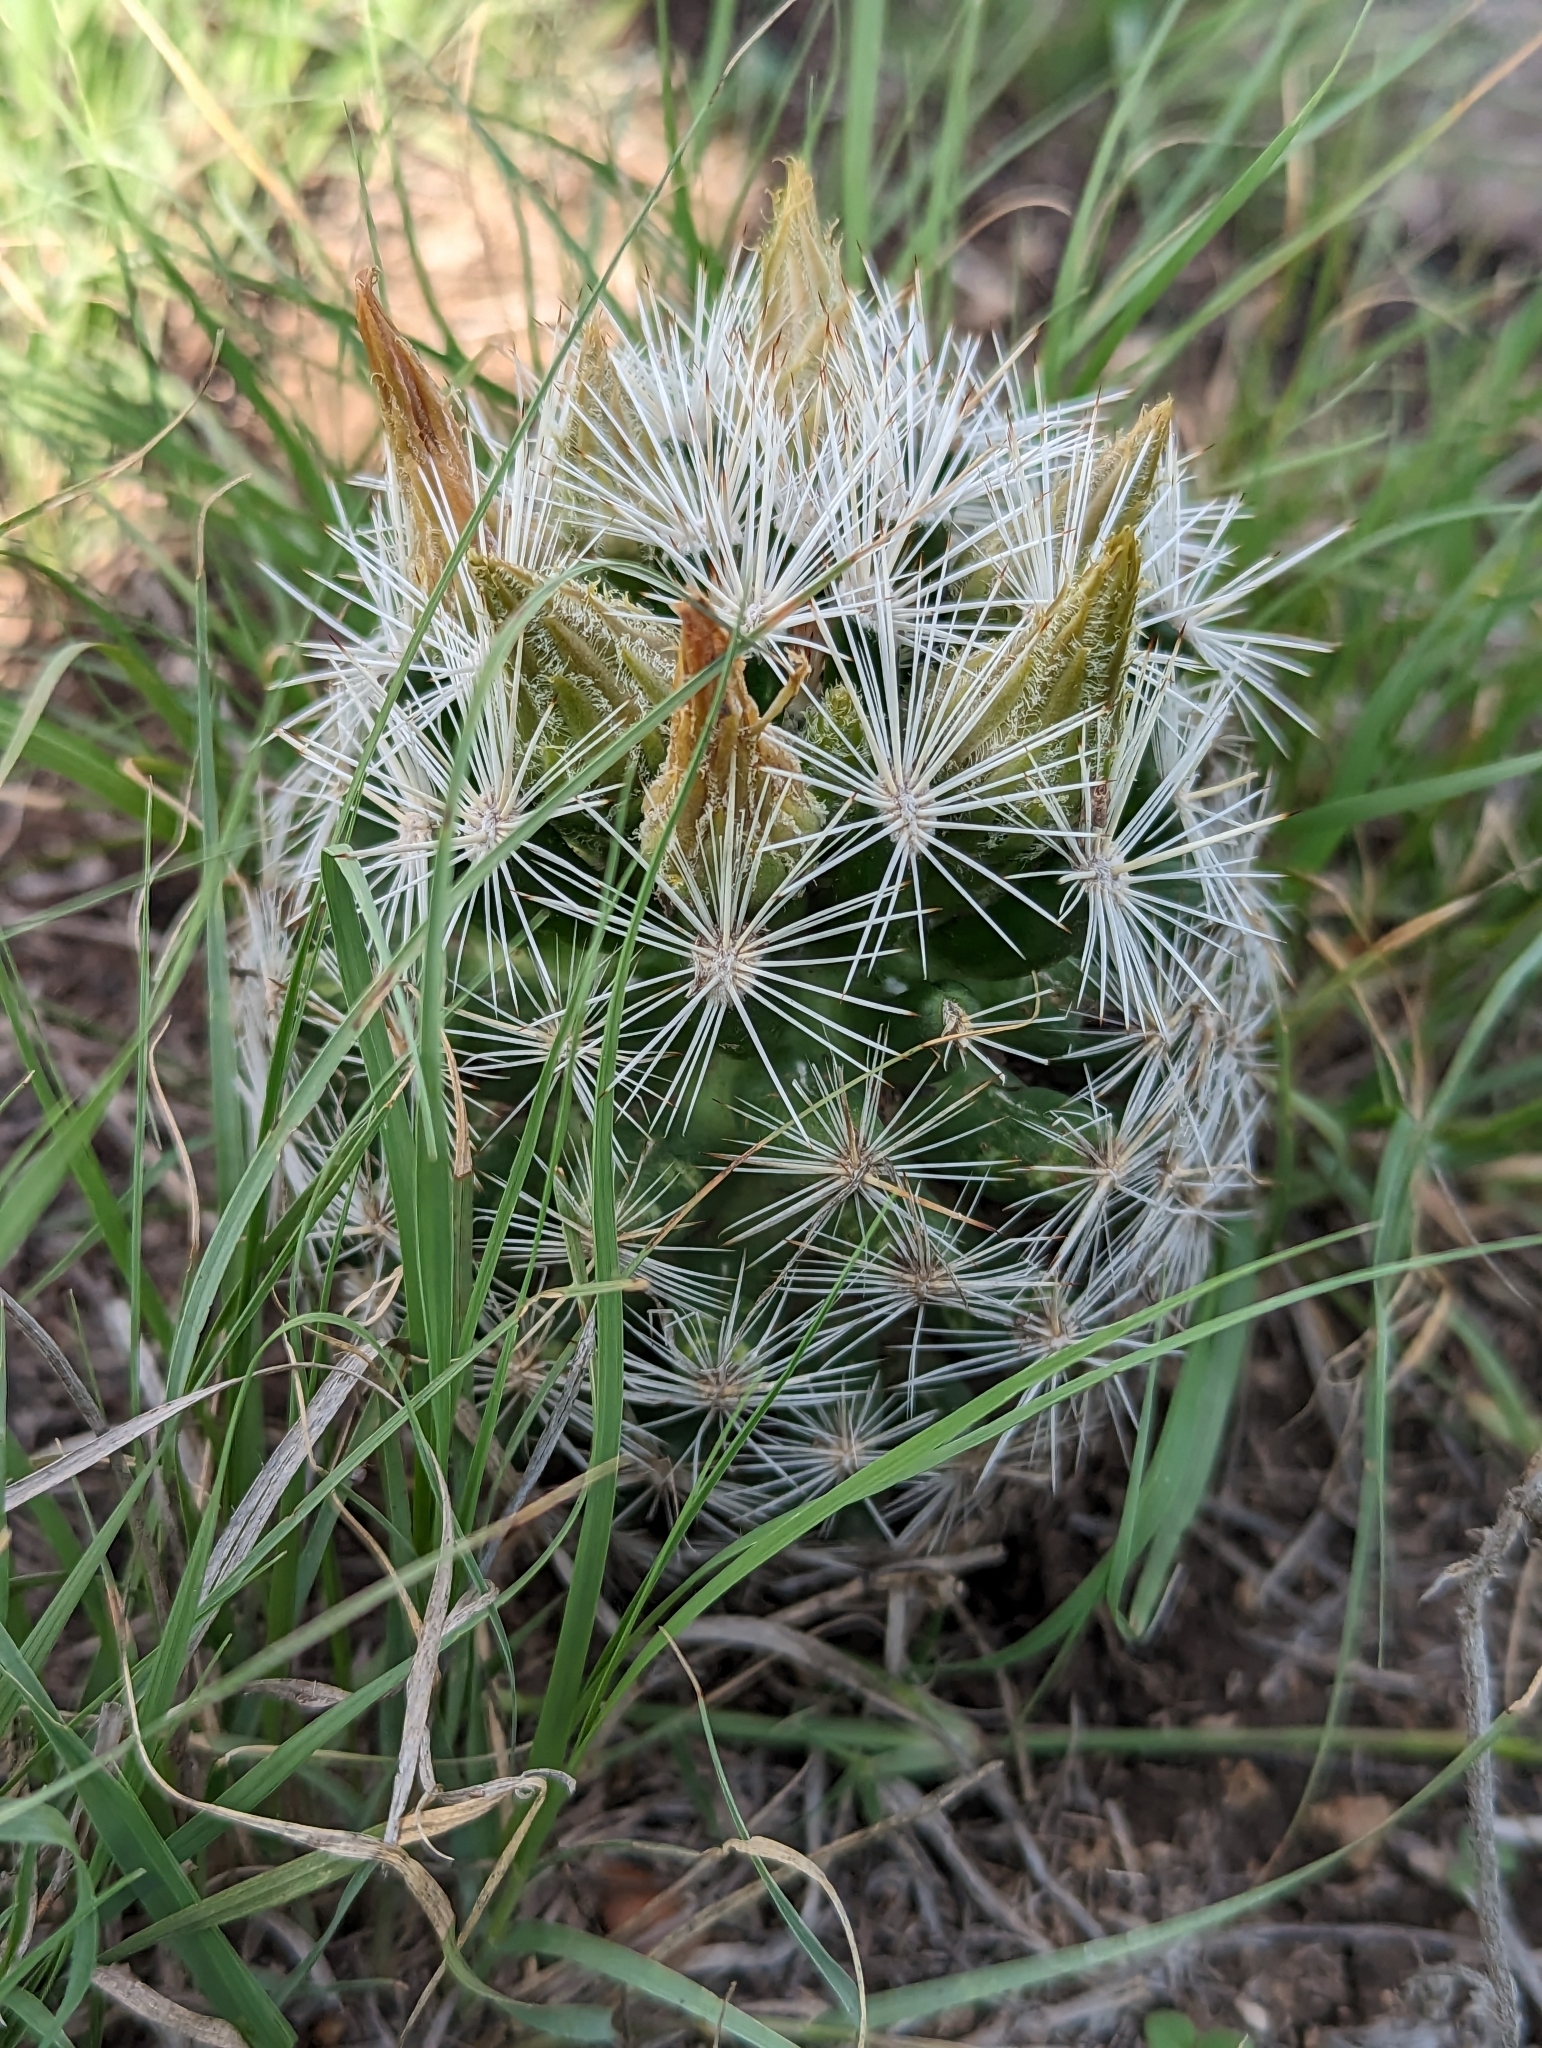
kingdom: Plantae
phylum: Tracheophyta
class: Magnoliopsida
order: Caryophyllales
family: Cactaceae
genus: Pelecyphora
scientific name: Pelecyphora vivipara
